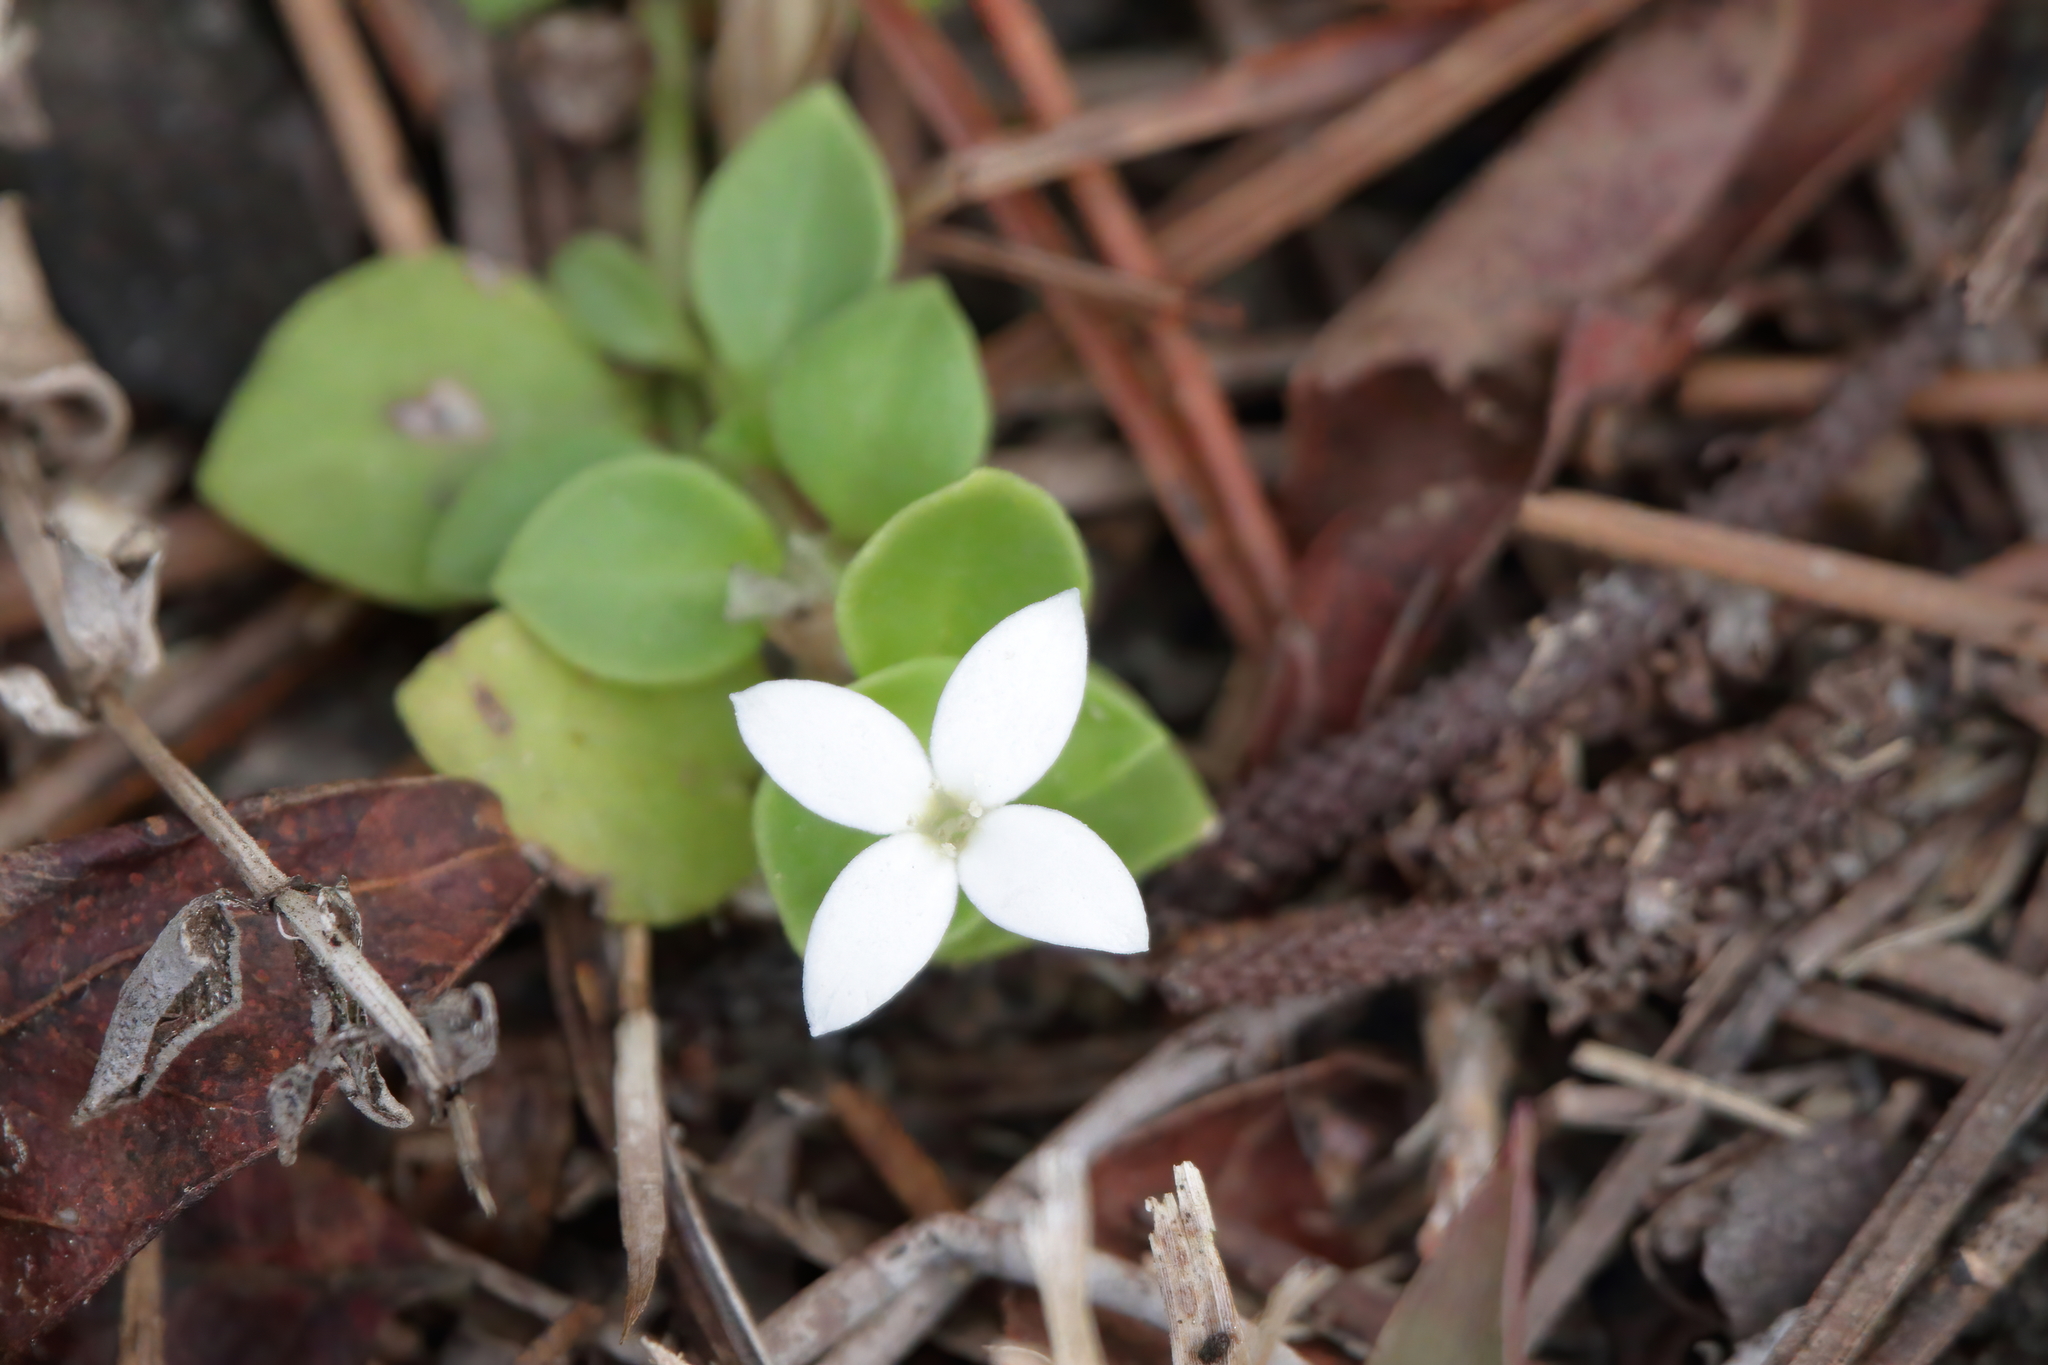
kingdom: Plantae
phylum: Tracheophyta
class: Magnoliopsida
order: Gentianales
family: Rubiaceae
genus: Houstonia
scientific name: Houstonia procumbens
